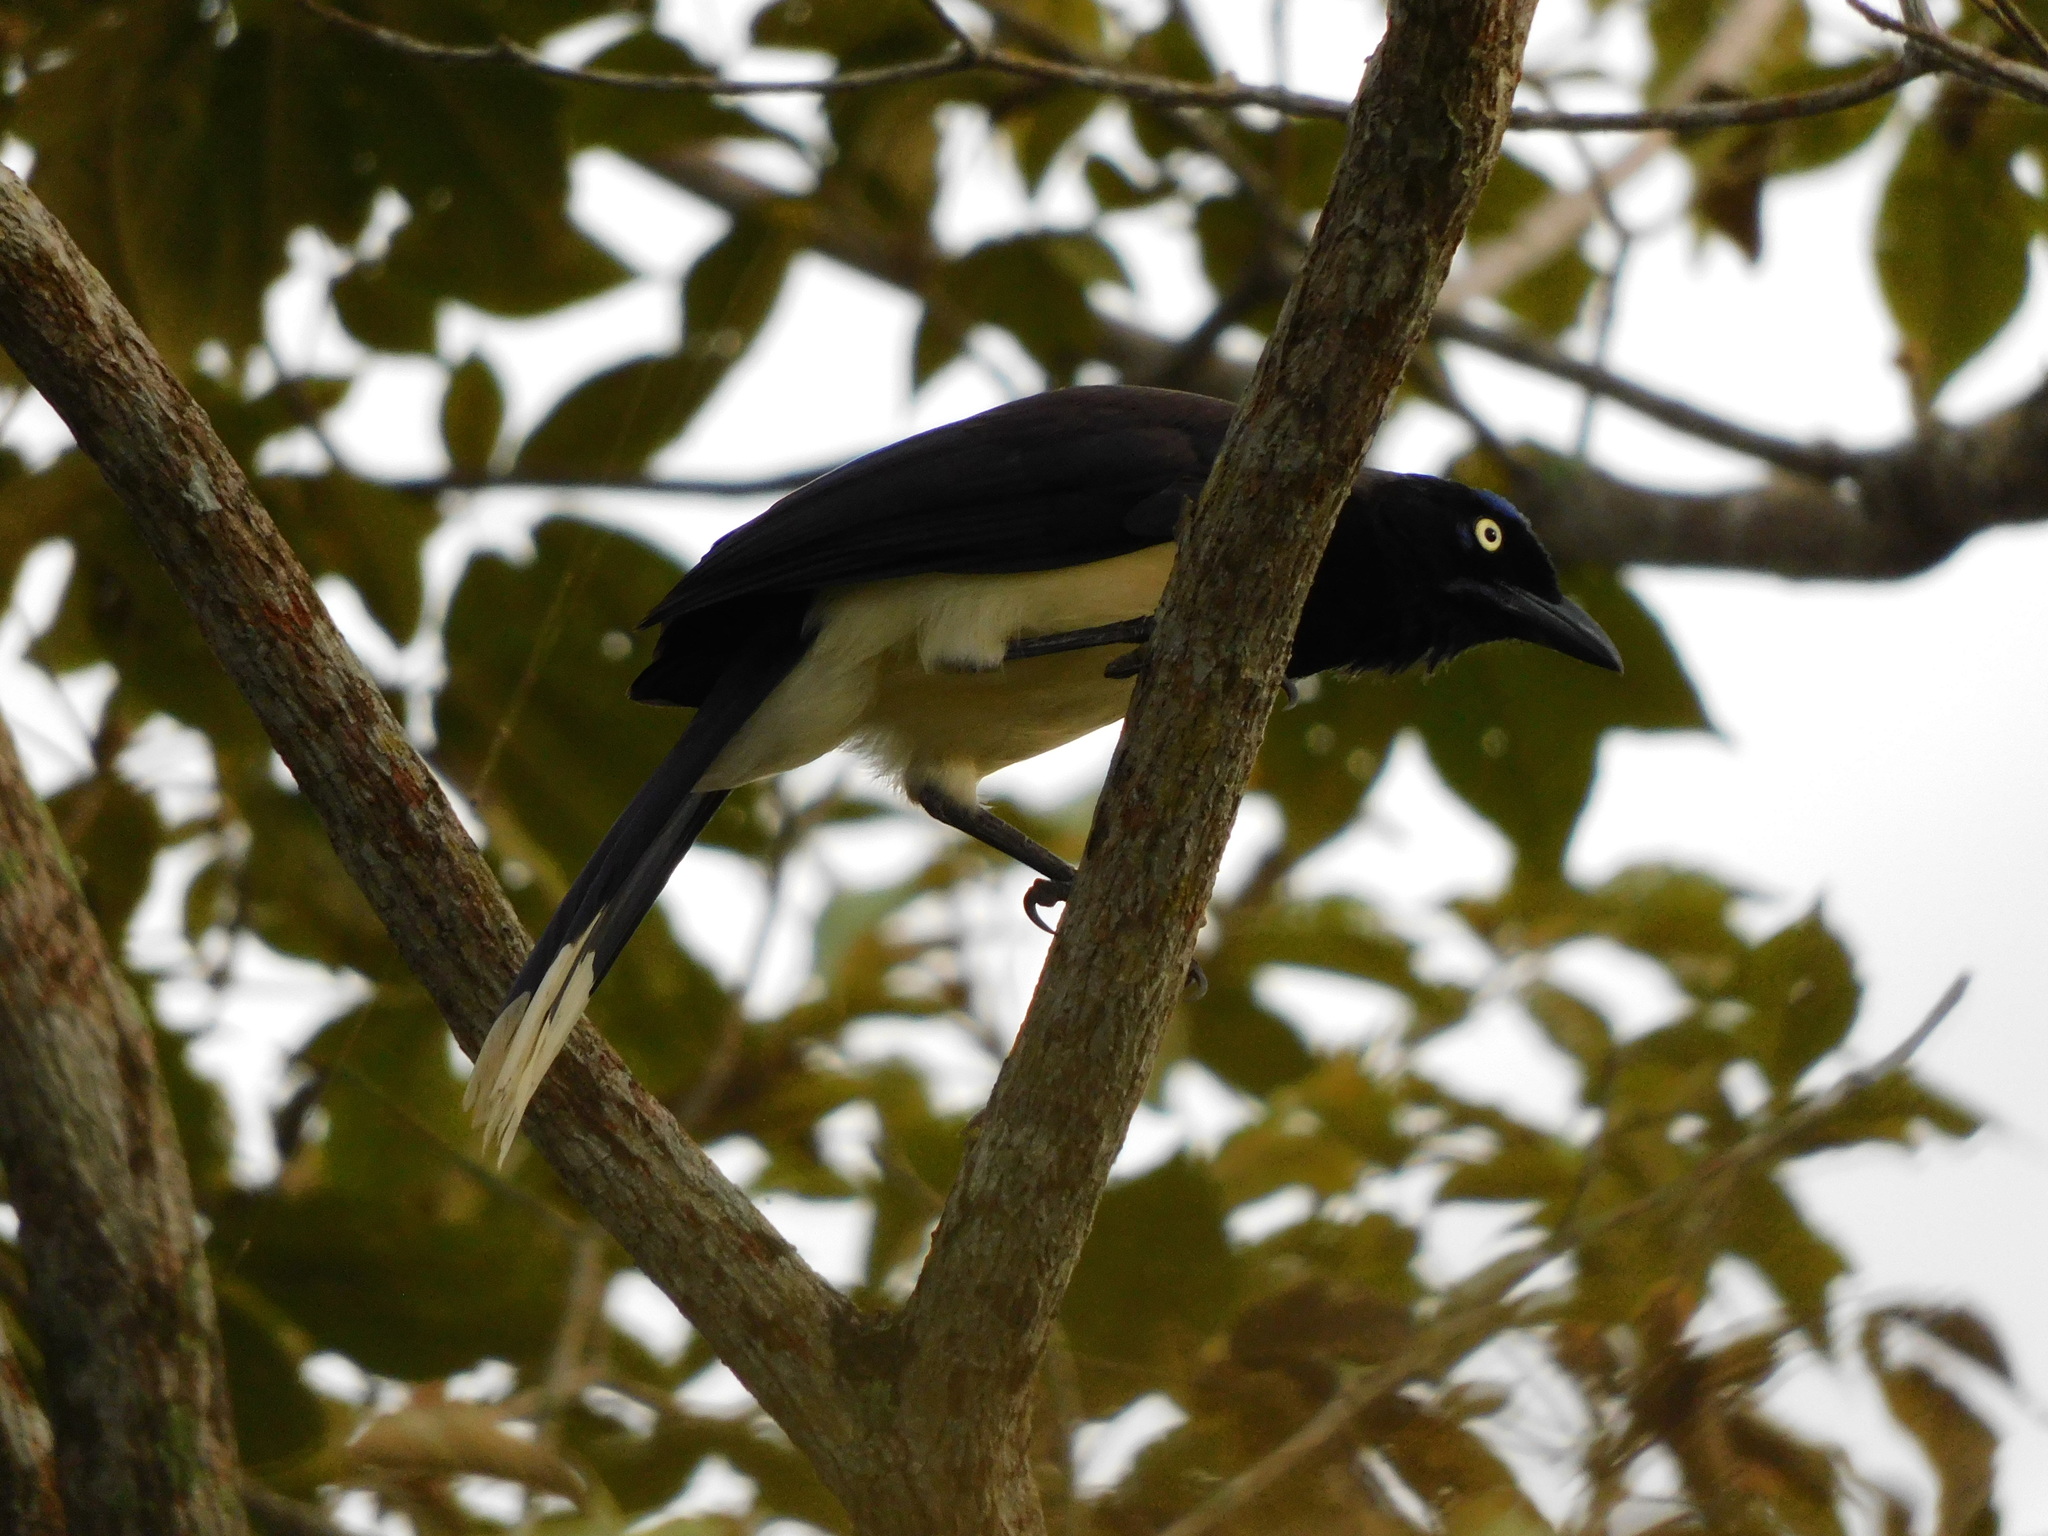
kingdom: Animalia
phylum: Chordata
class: Aves
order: Passeriformes
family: Corvidae
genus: Cyanocorax
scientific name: Cyanocorax affinis
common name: Black-chested jay
